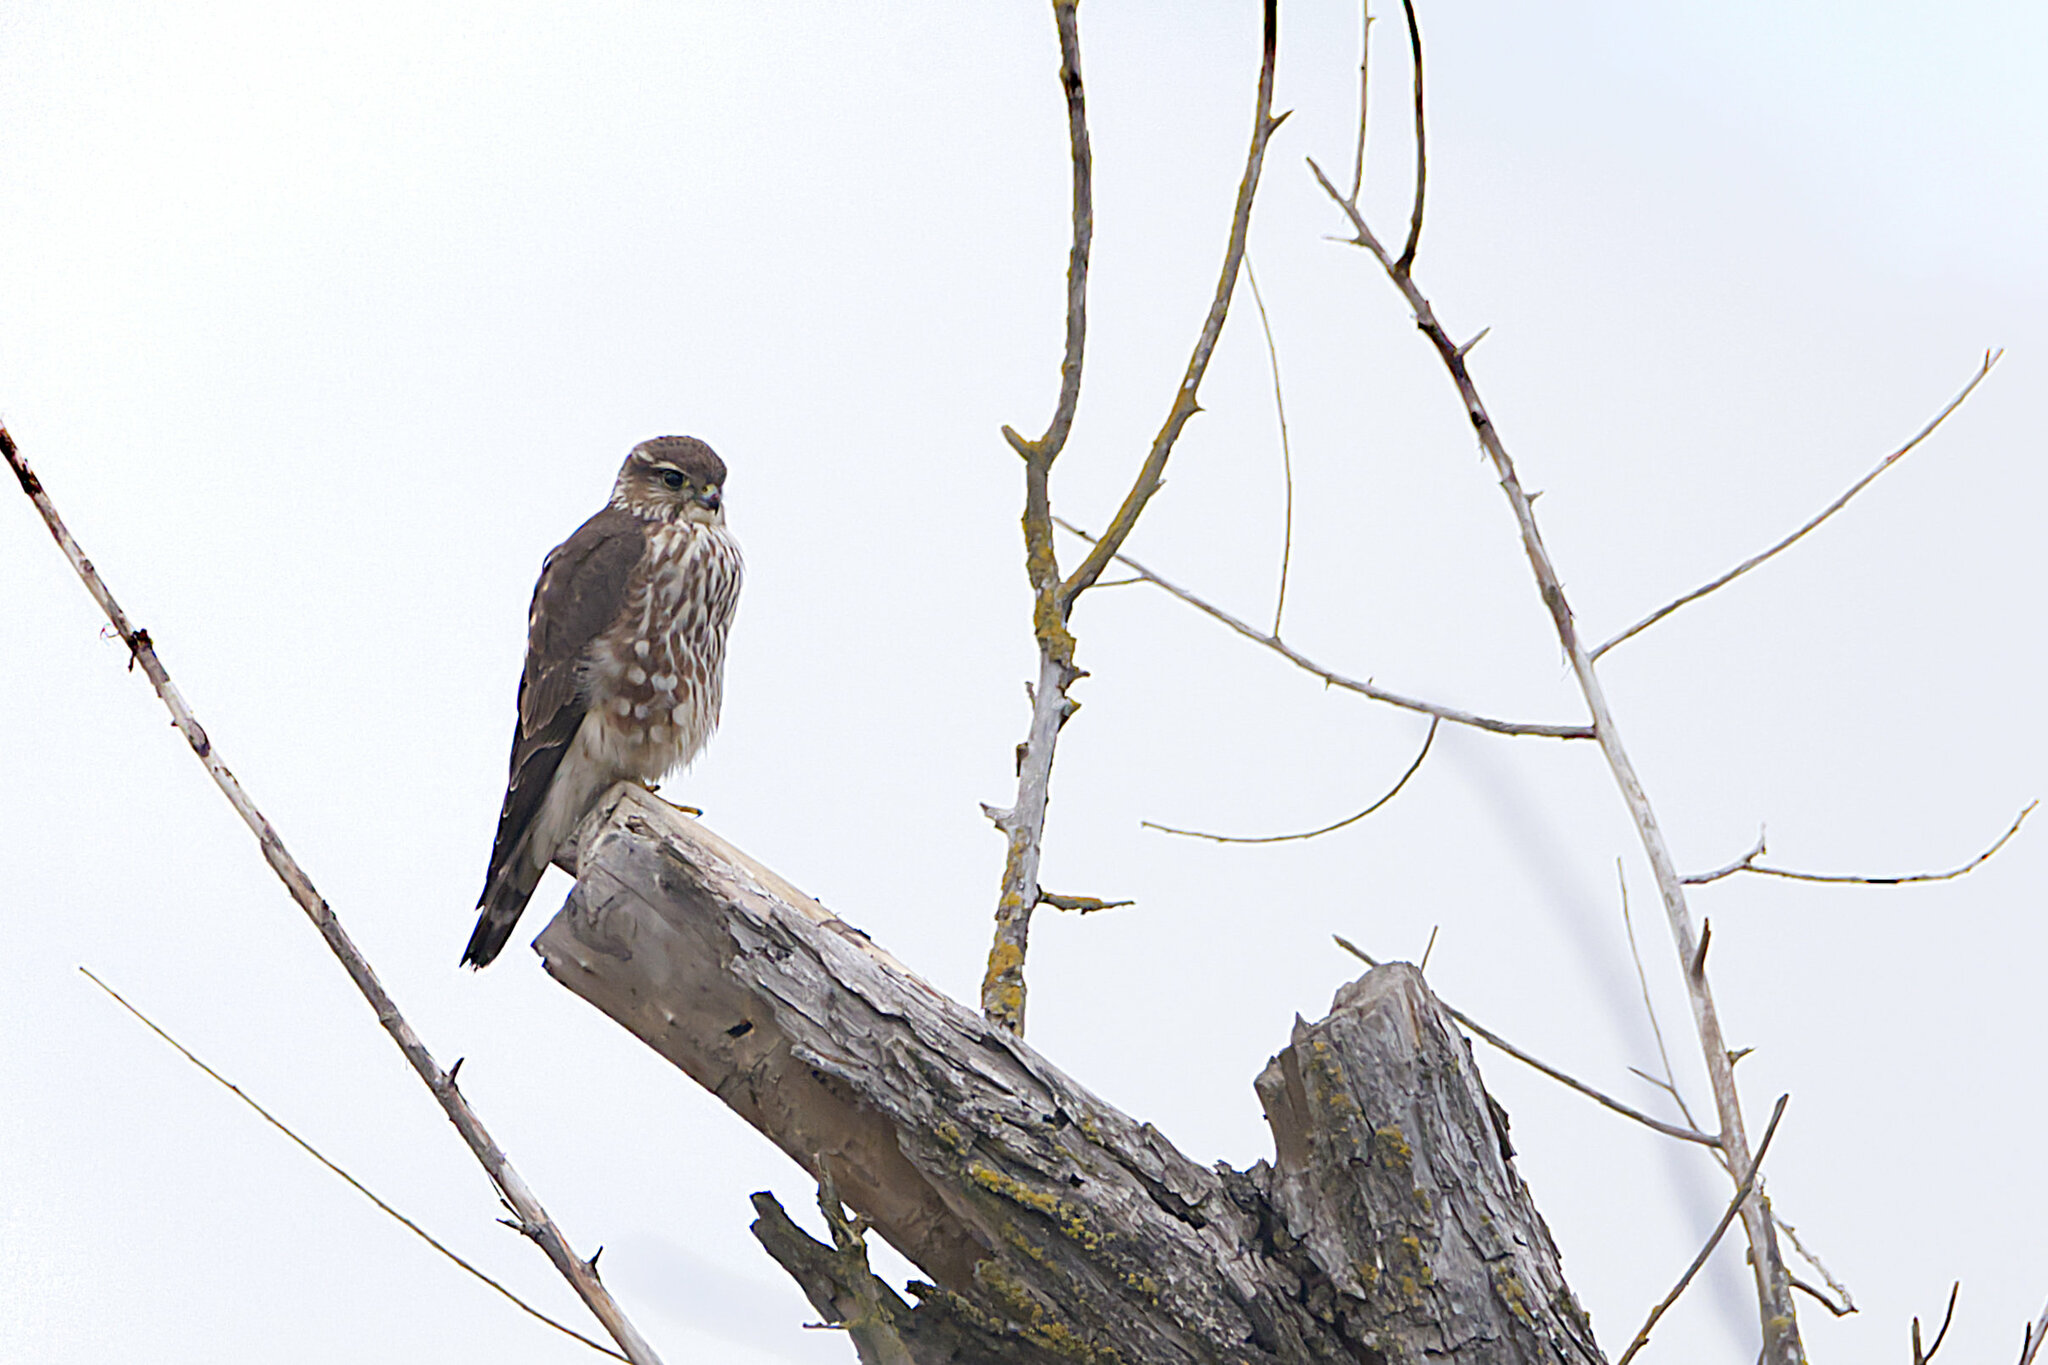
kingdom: Animalia
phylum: Chordata
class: Aves
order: Falconiformes
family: Falconidae
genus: Falco
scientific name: Falco columbarius
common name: Merlin
